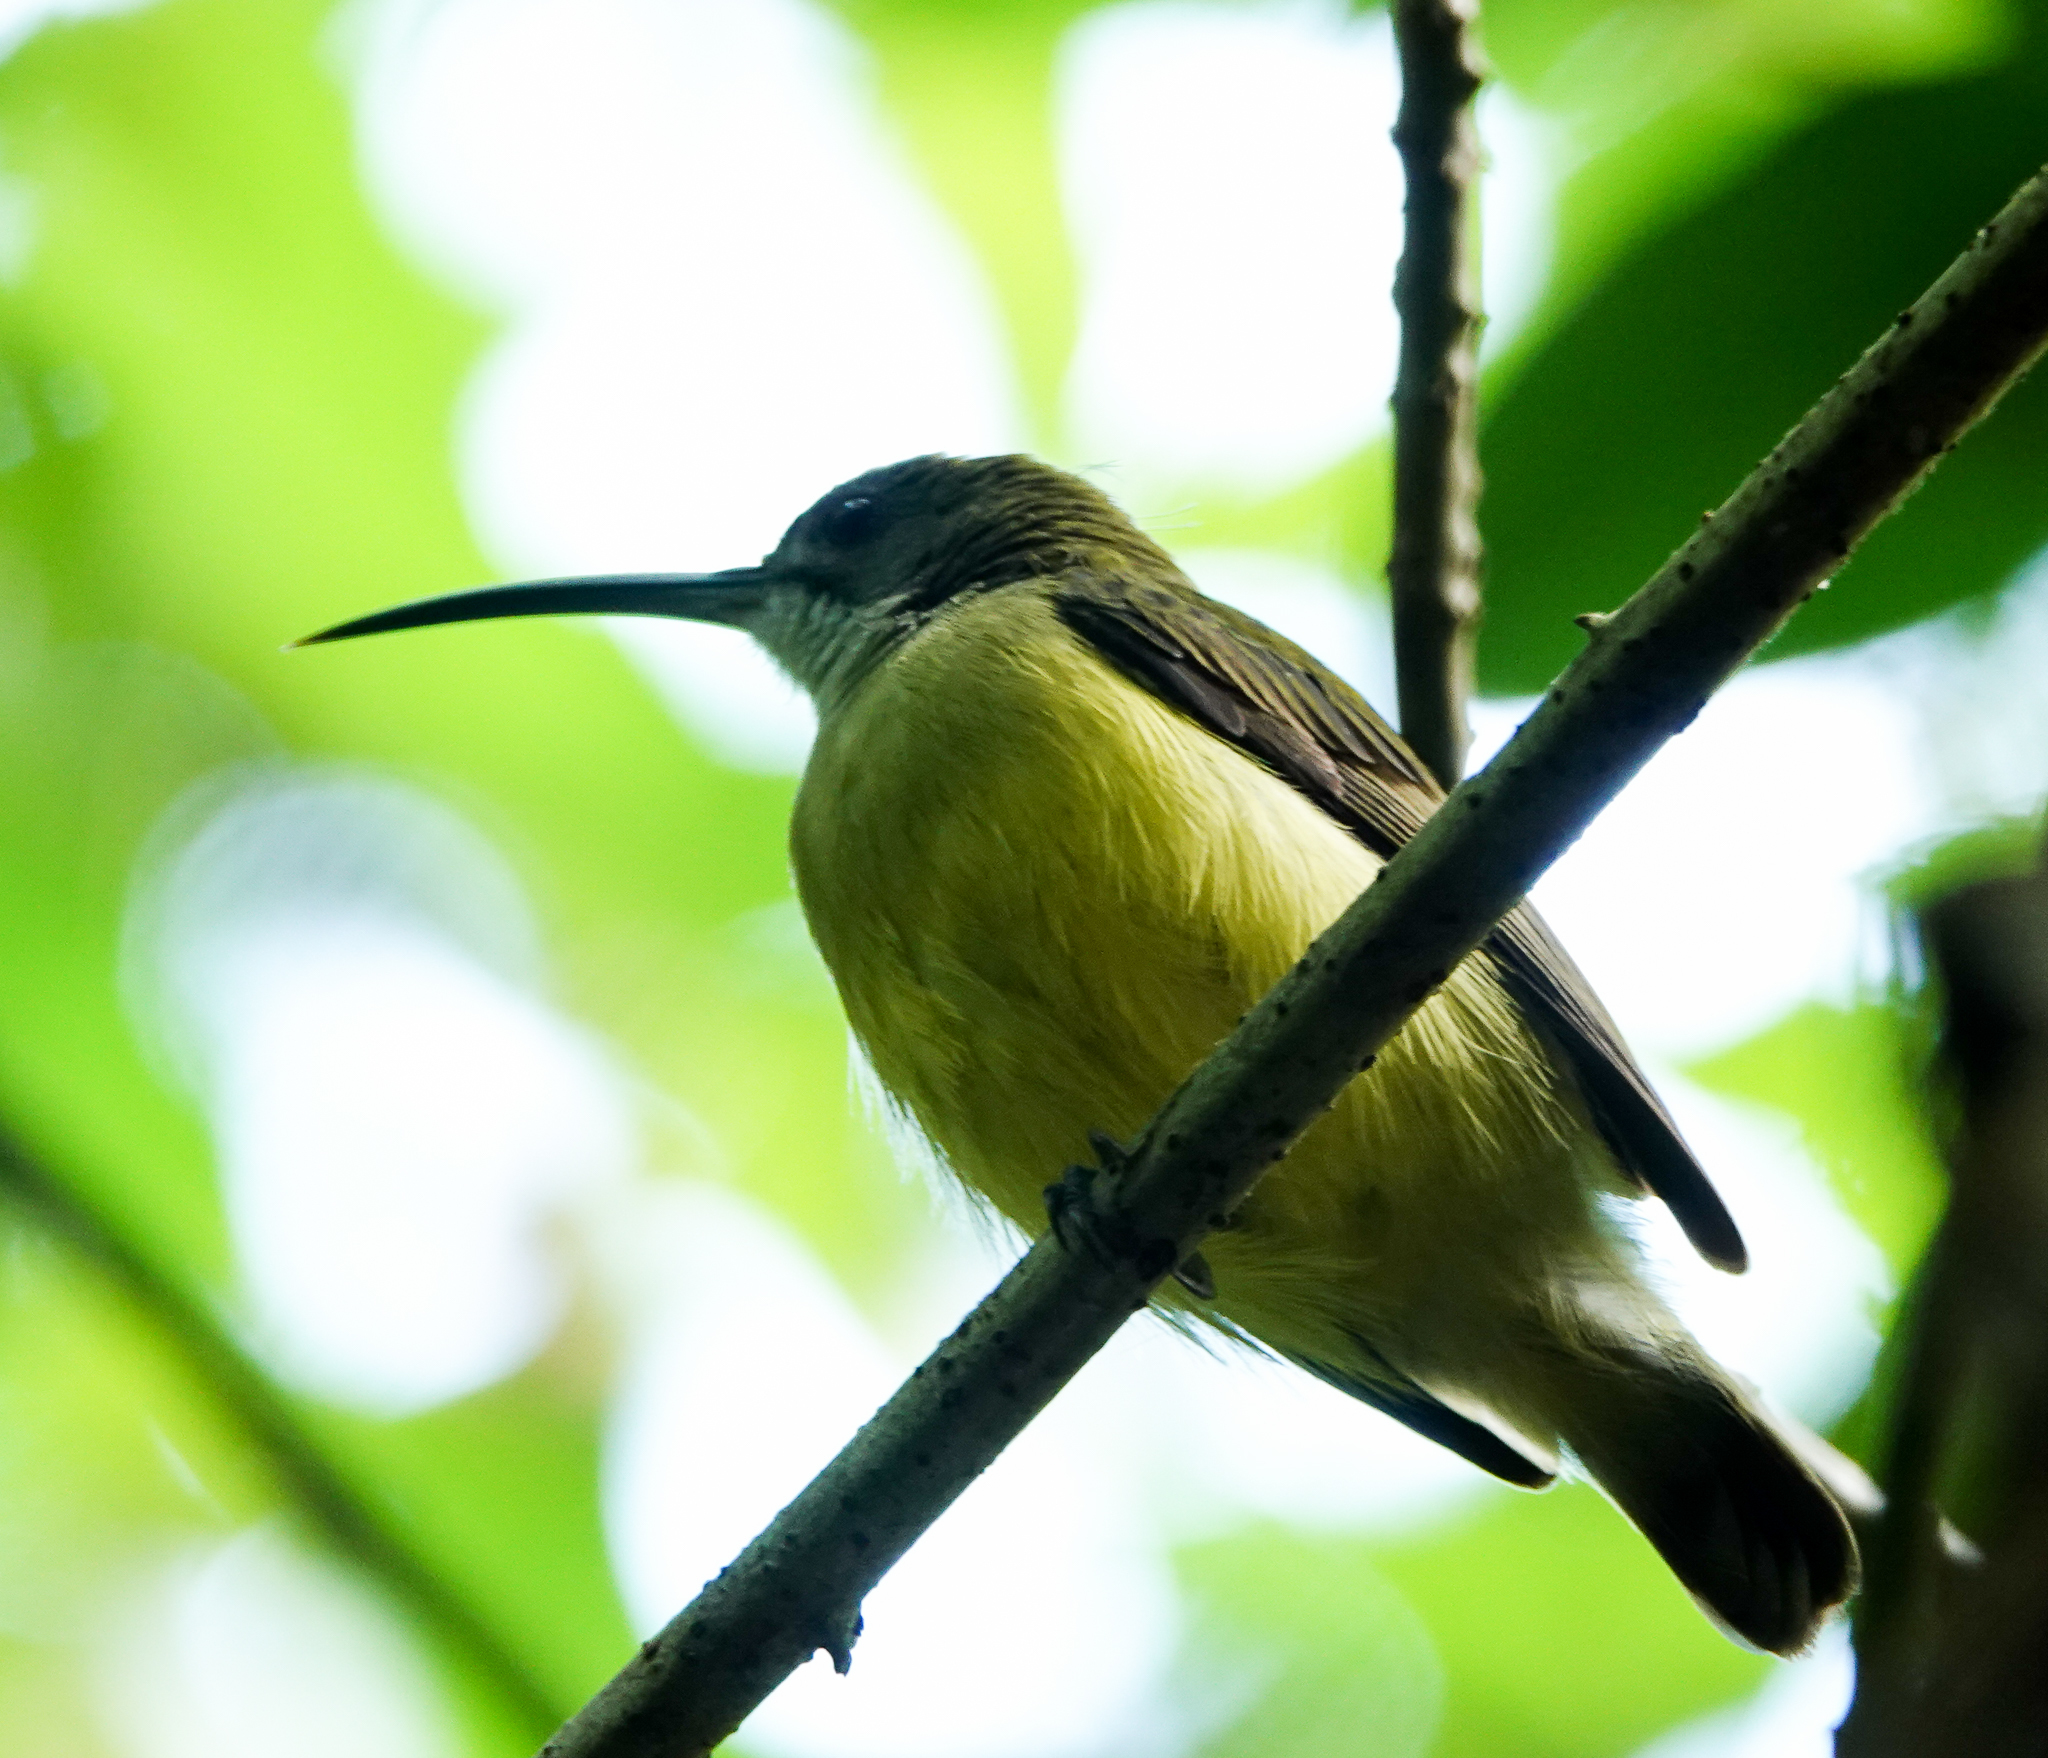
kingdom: Animalia
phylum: Chordata
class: Aves
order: Passeriformes
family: Nectariniidae
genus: Arachnothera
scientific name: Arachnothera longirostra
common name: Little spiderhunter
